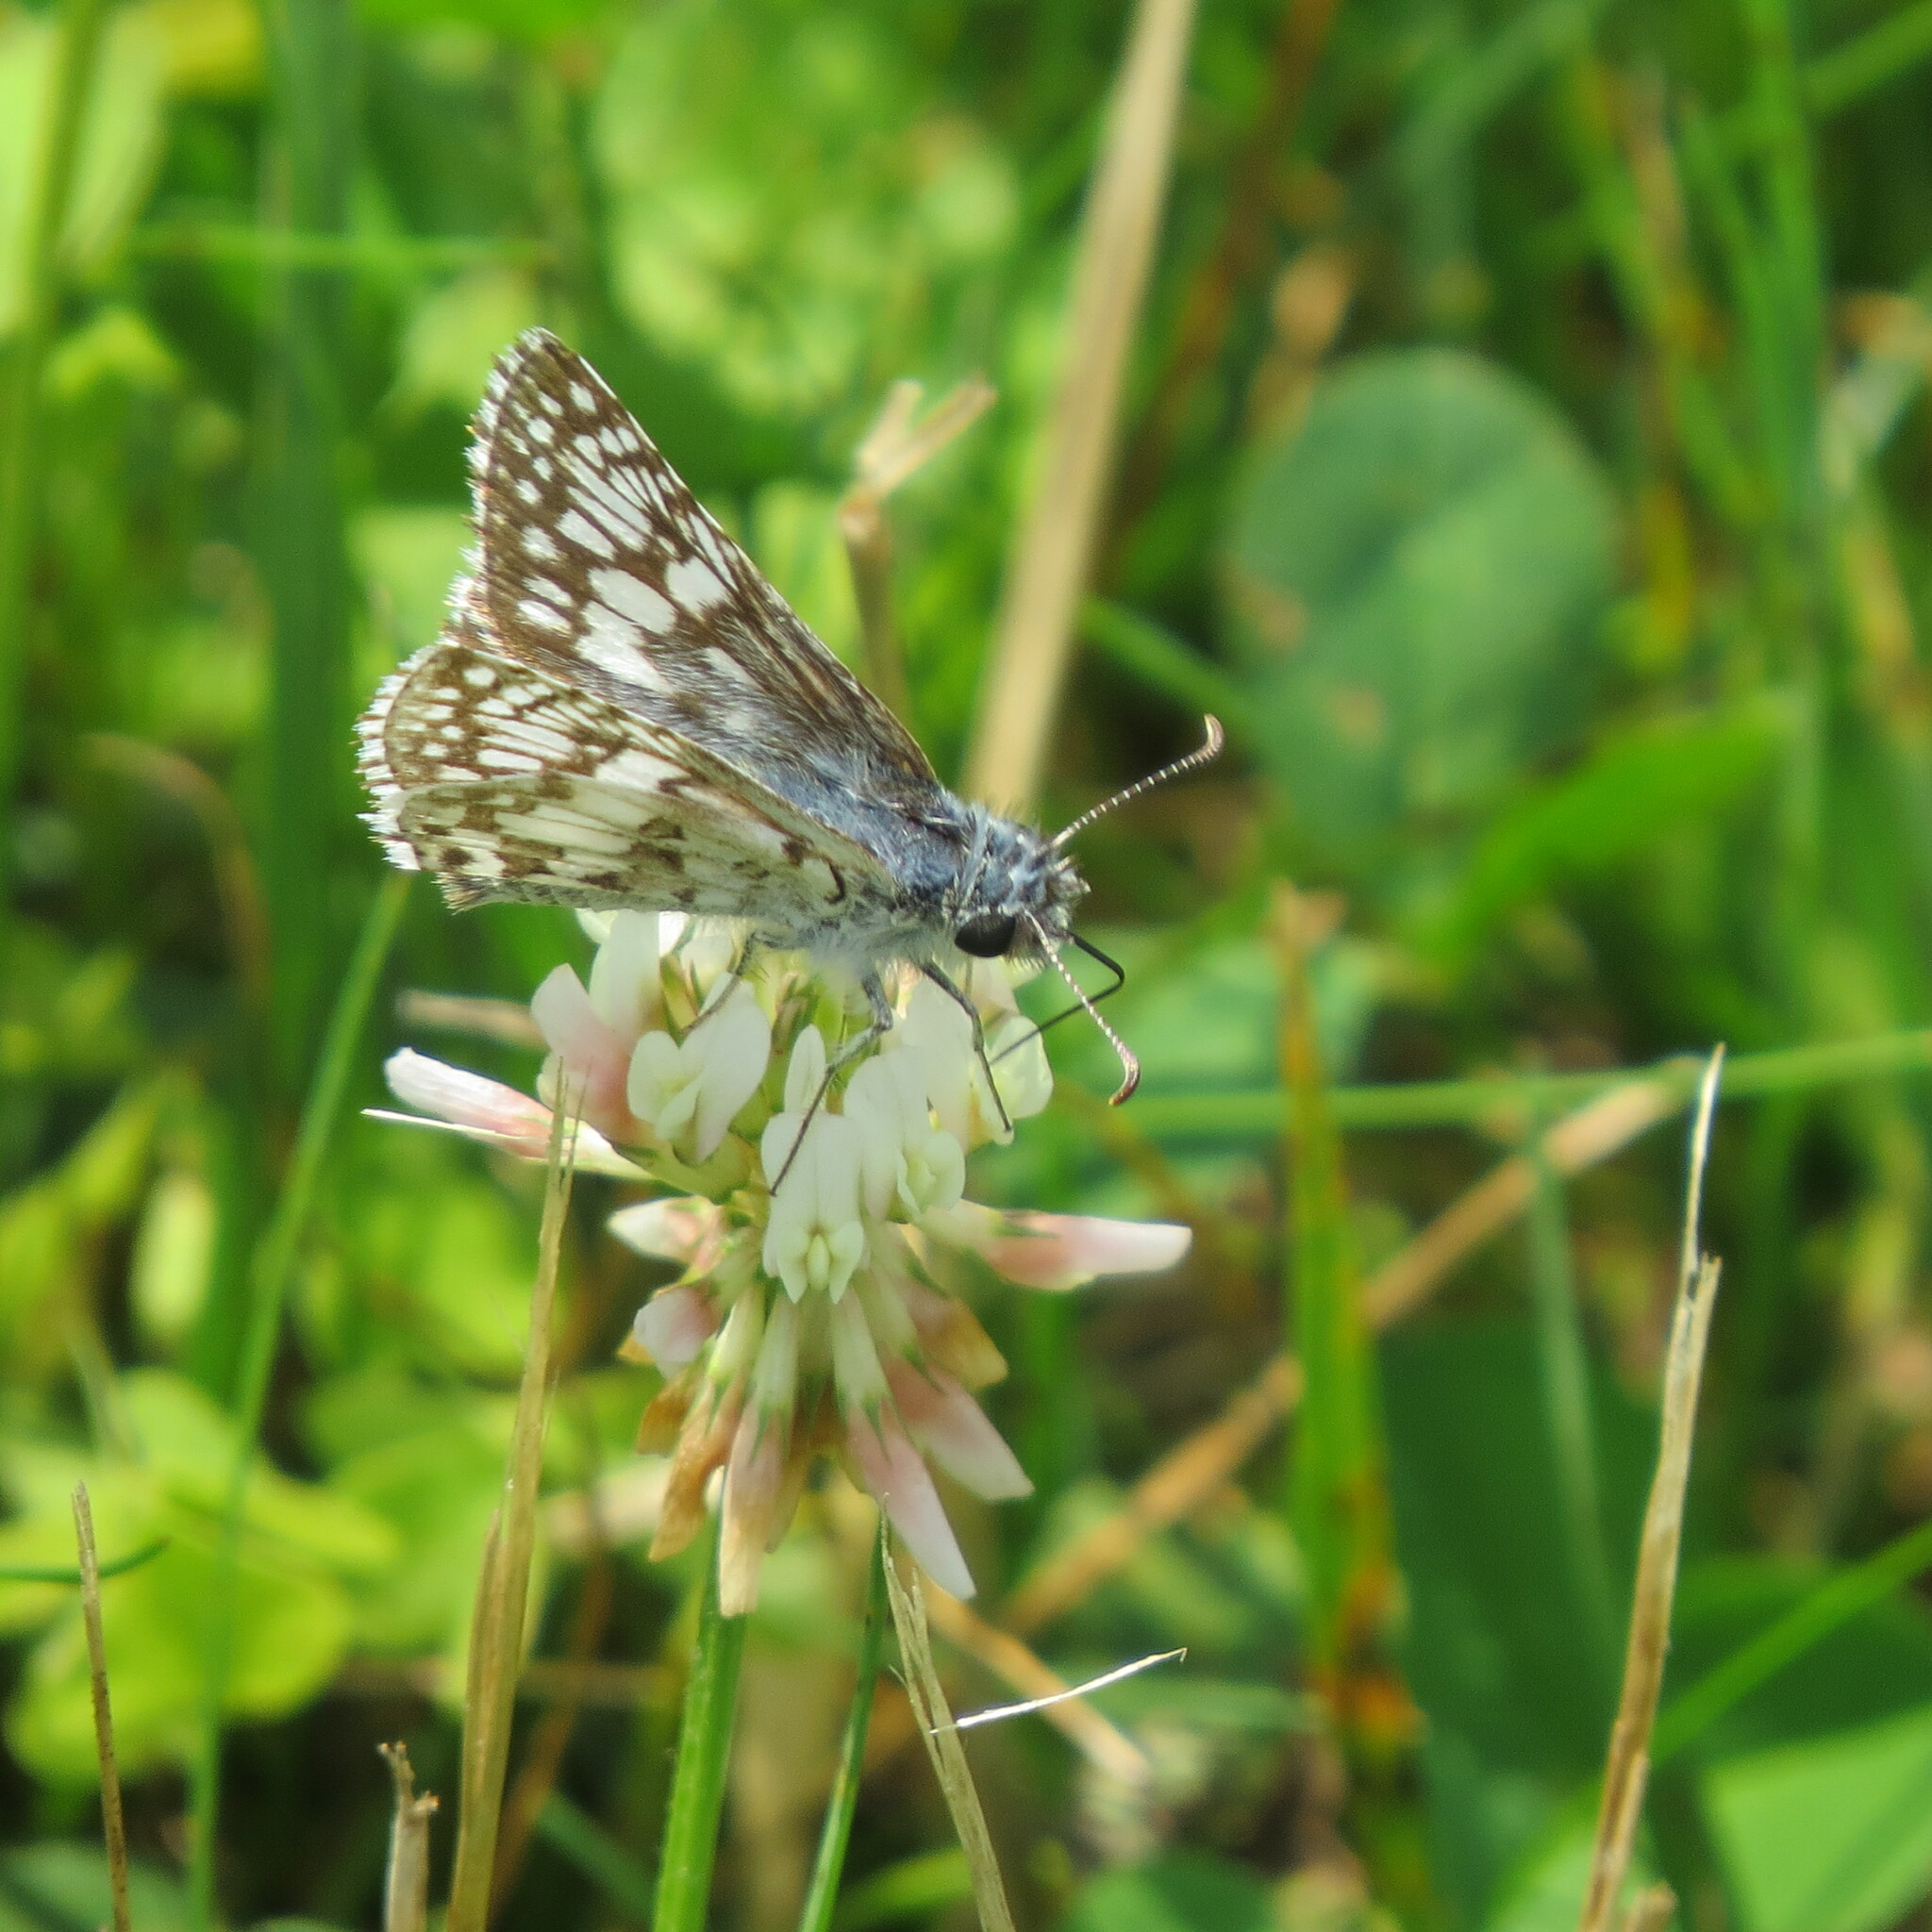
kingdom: Animalia
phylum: Arthropoda
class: Insecta
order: Lepidoptera
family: Hesperiidae
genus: Burnsius
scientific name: Burnsius communis
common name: Common checkered-skipper
